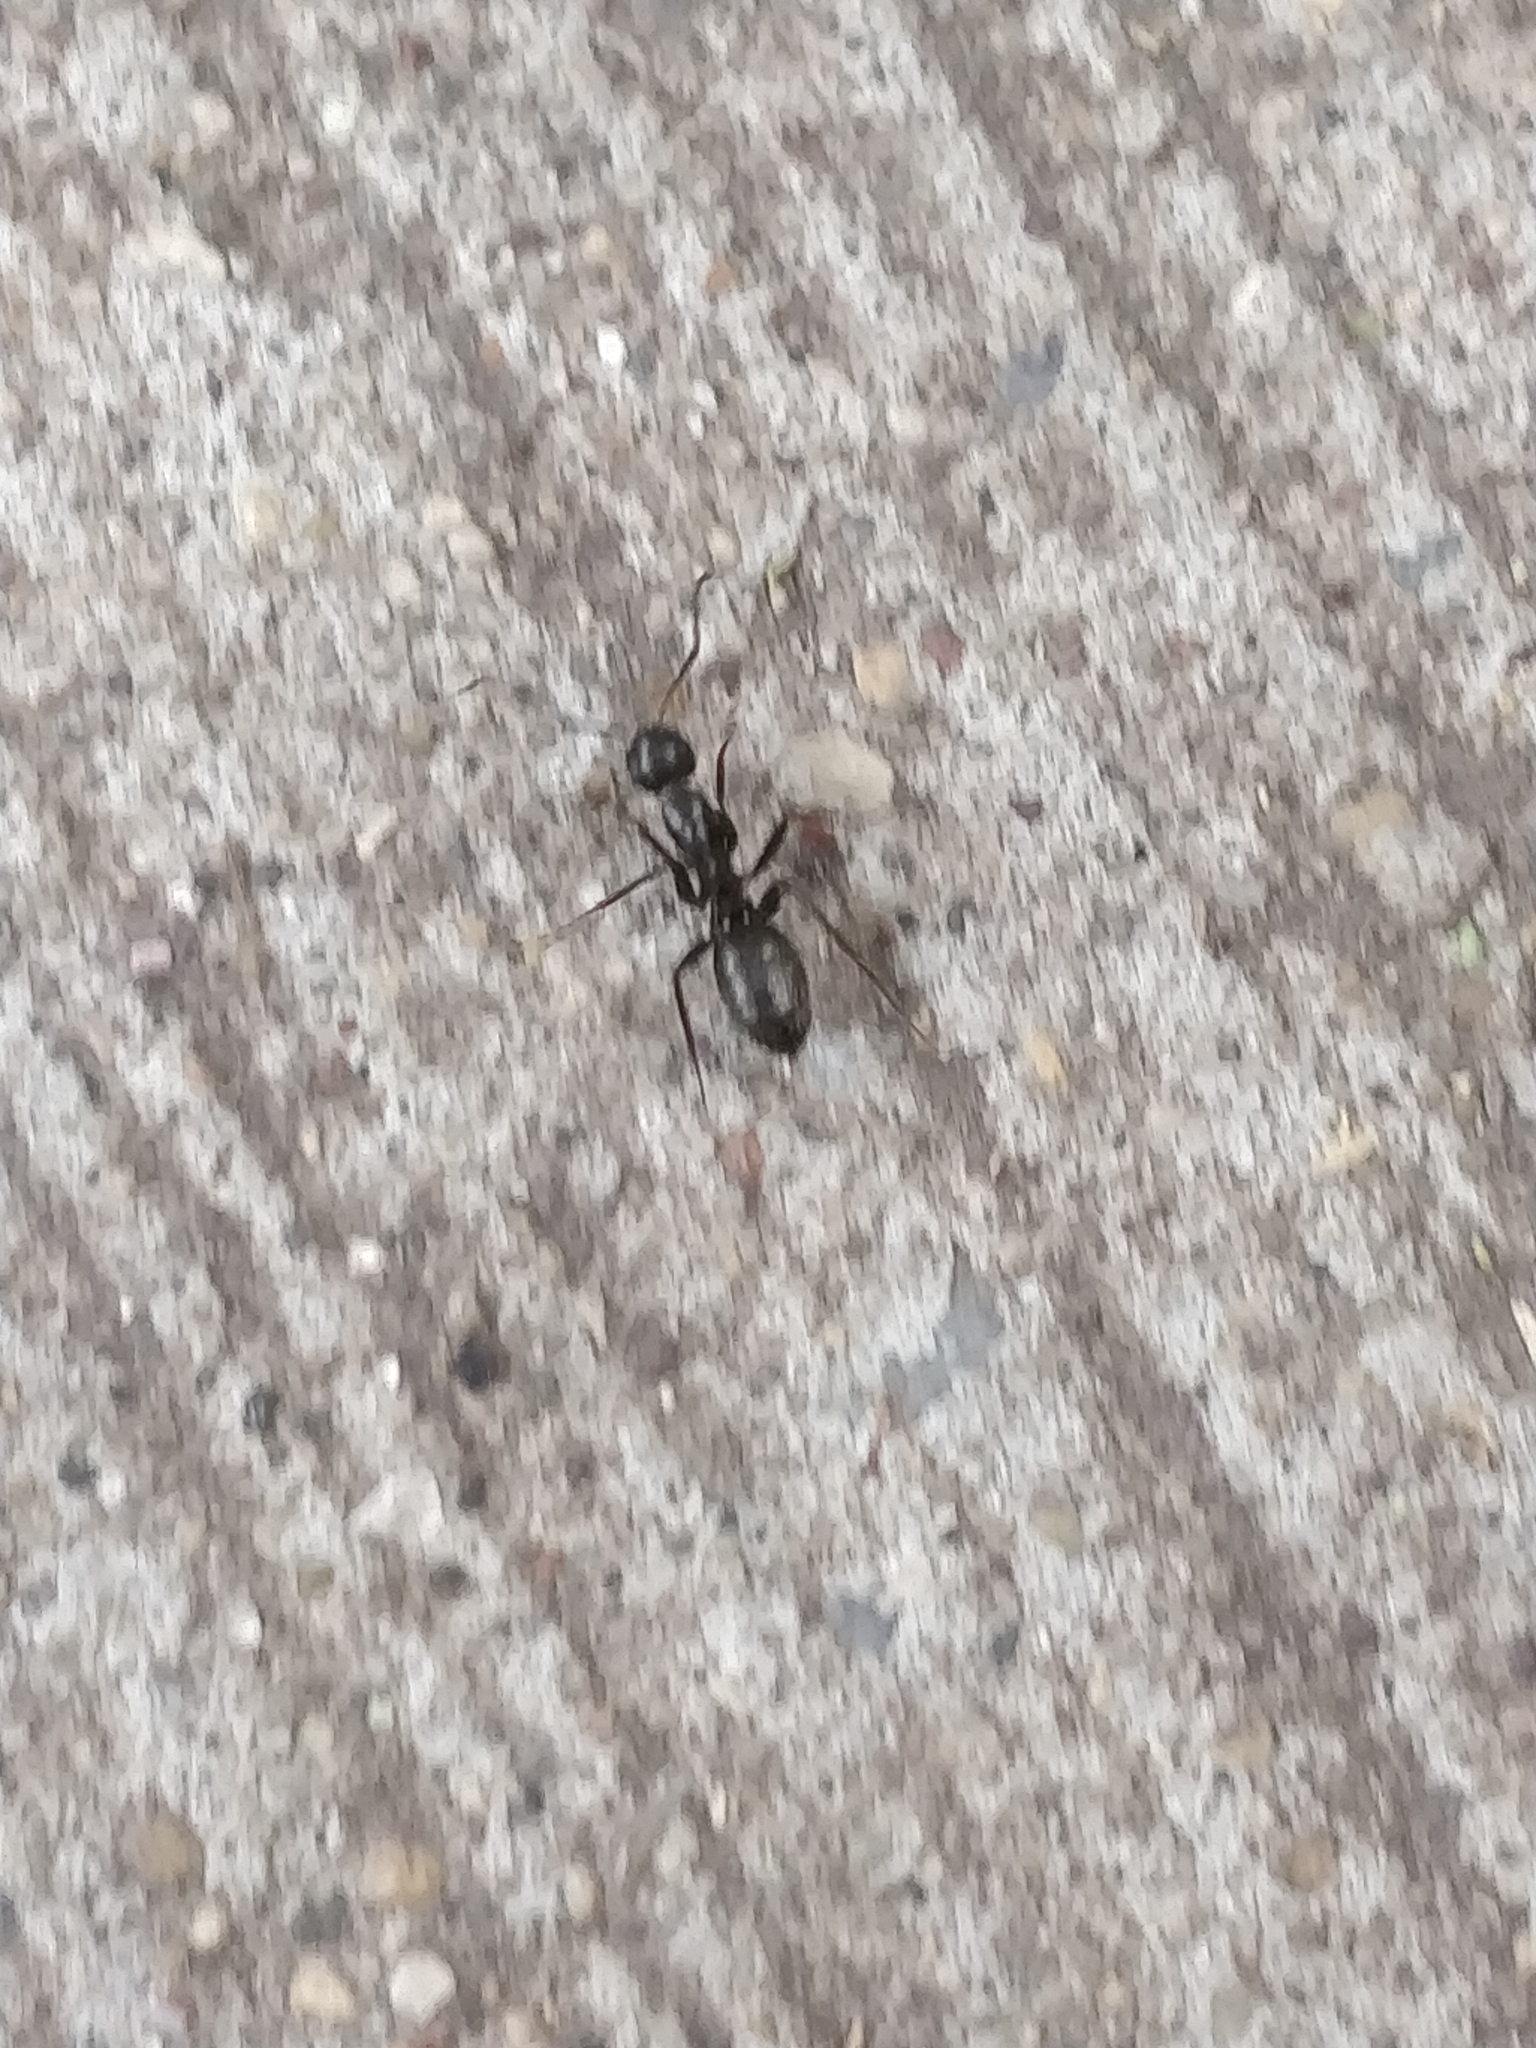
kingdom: Animalia
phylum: Arthropoda
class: Insecta
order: Hymenoptera
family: Formicidae
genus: Camponotus
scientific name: Camponotus pennsylvanicus
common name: Black carpenter ant
